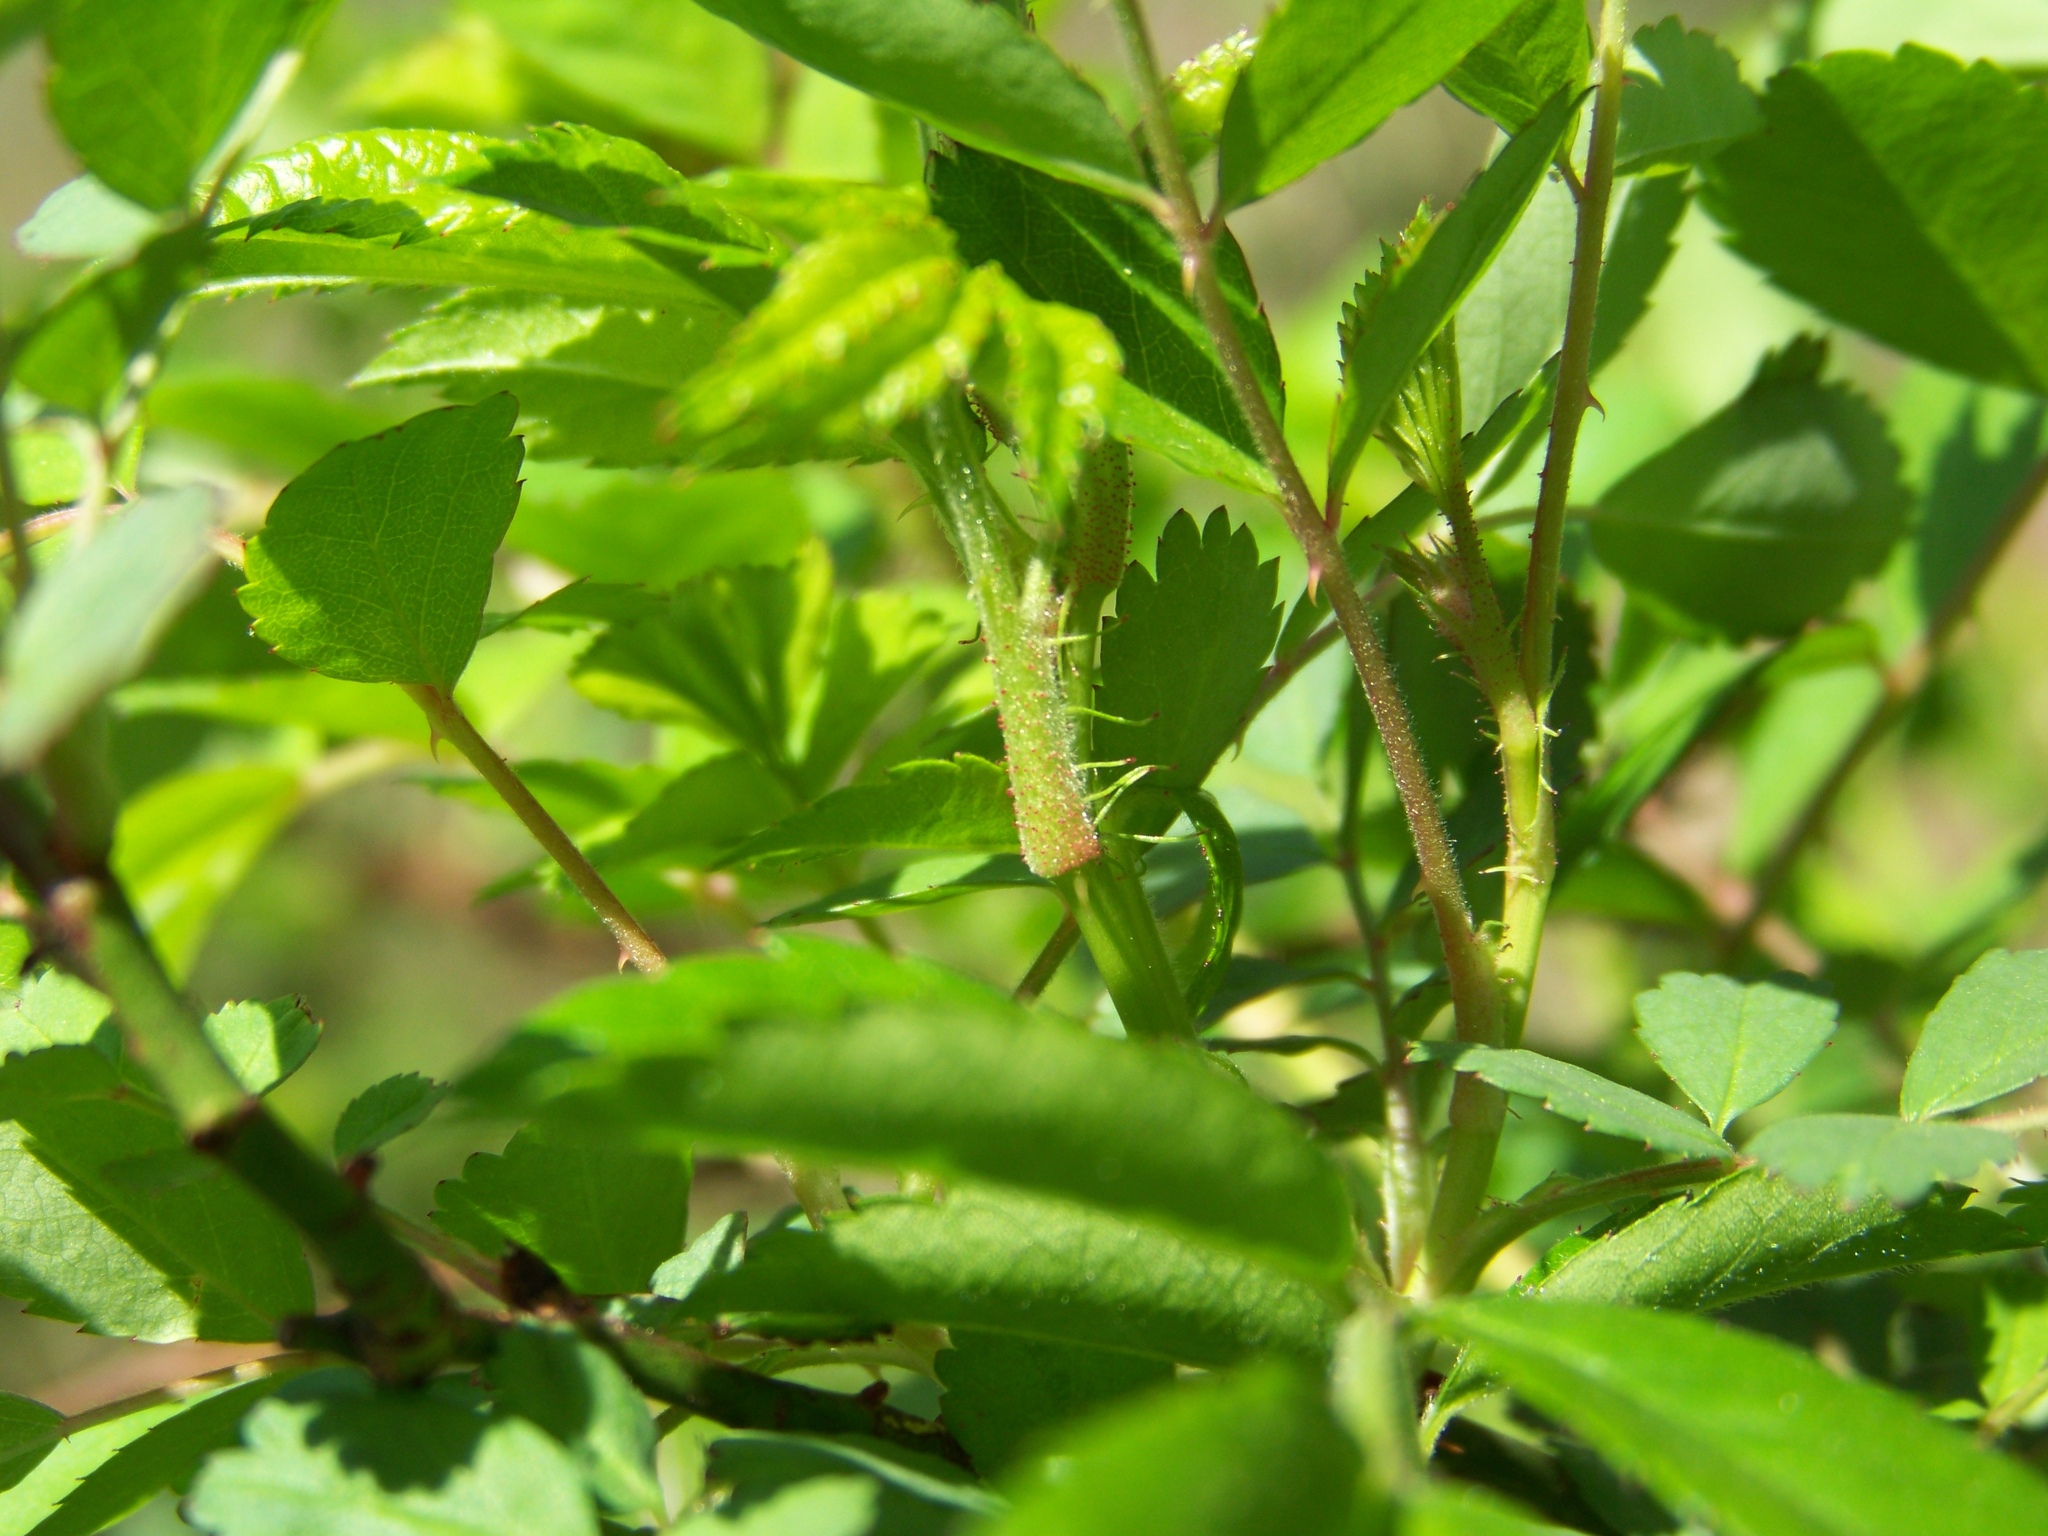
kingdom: Plantae
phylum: Tracheophyta
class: Magnoliopsida
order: Rosales
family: Rosaceae
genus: Rosa
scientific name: Rosa multiflora
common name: Multiflora rose
